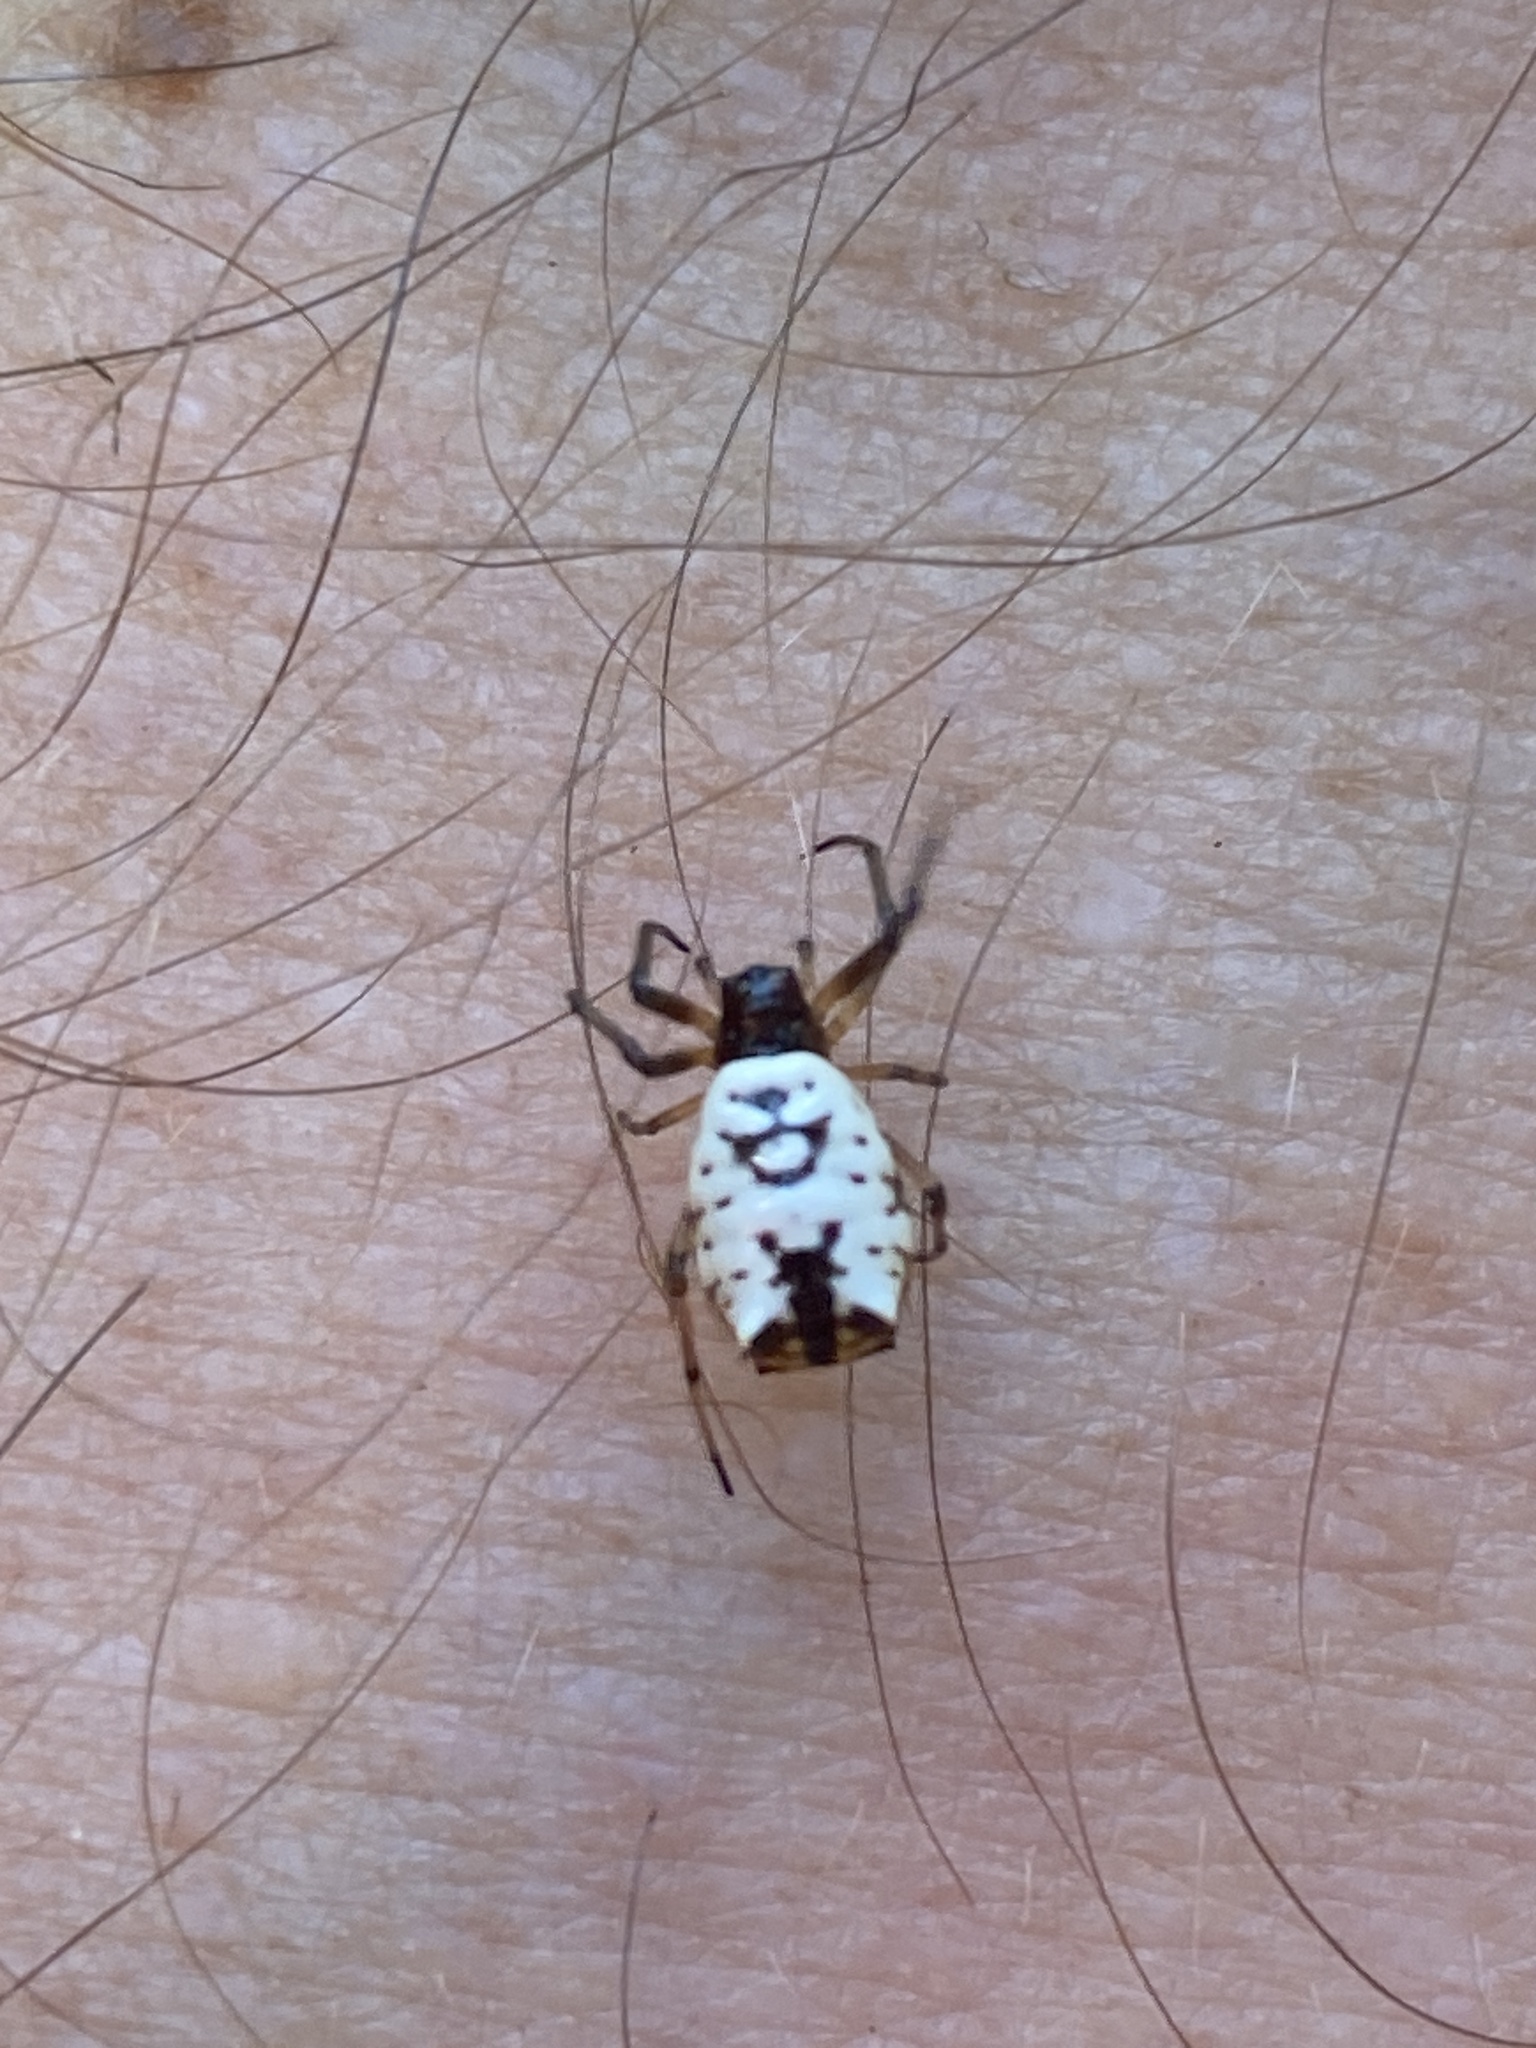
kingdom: Animalia
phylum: Arthropoda
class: Arachnida
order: Araneae
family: Araneidae
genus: Micrathena
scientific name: Micrathena mitrata
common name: Orb weavers
